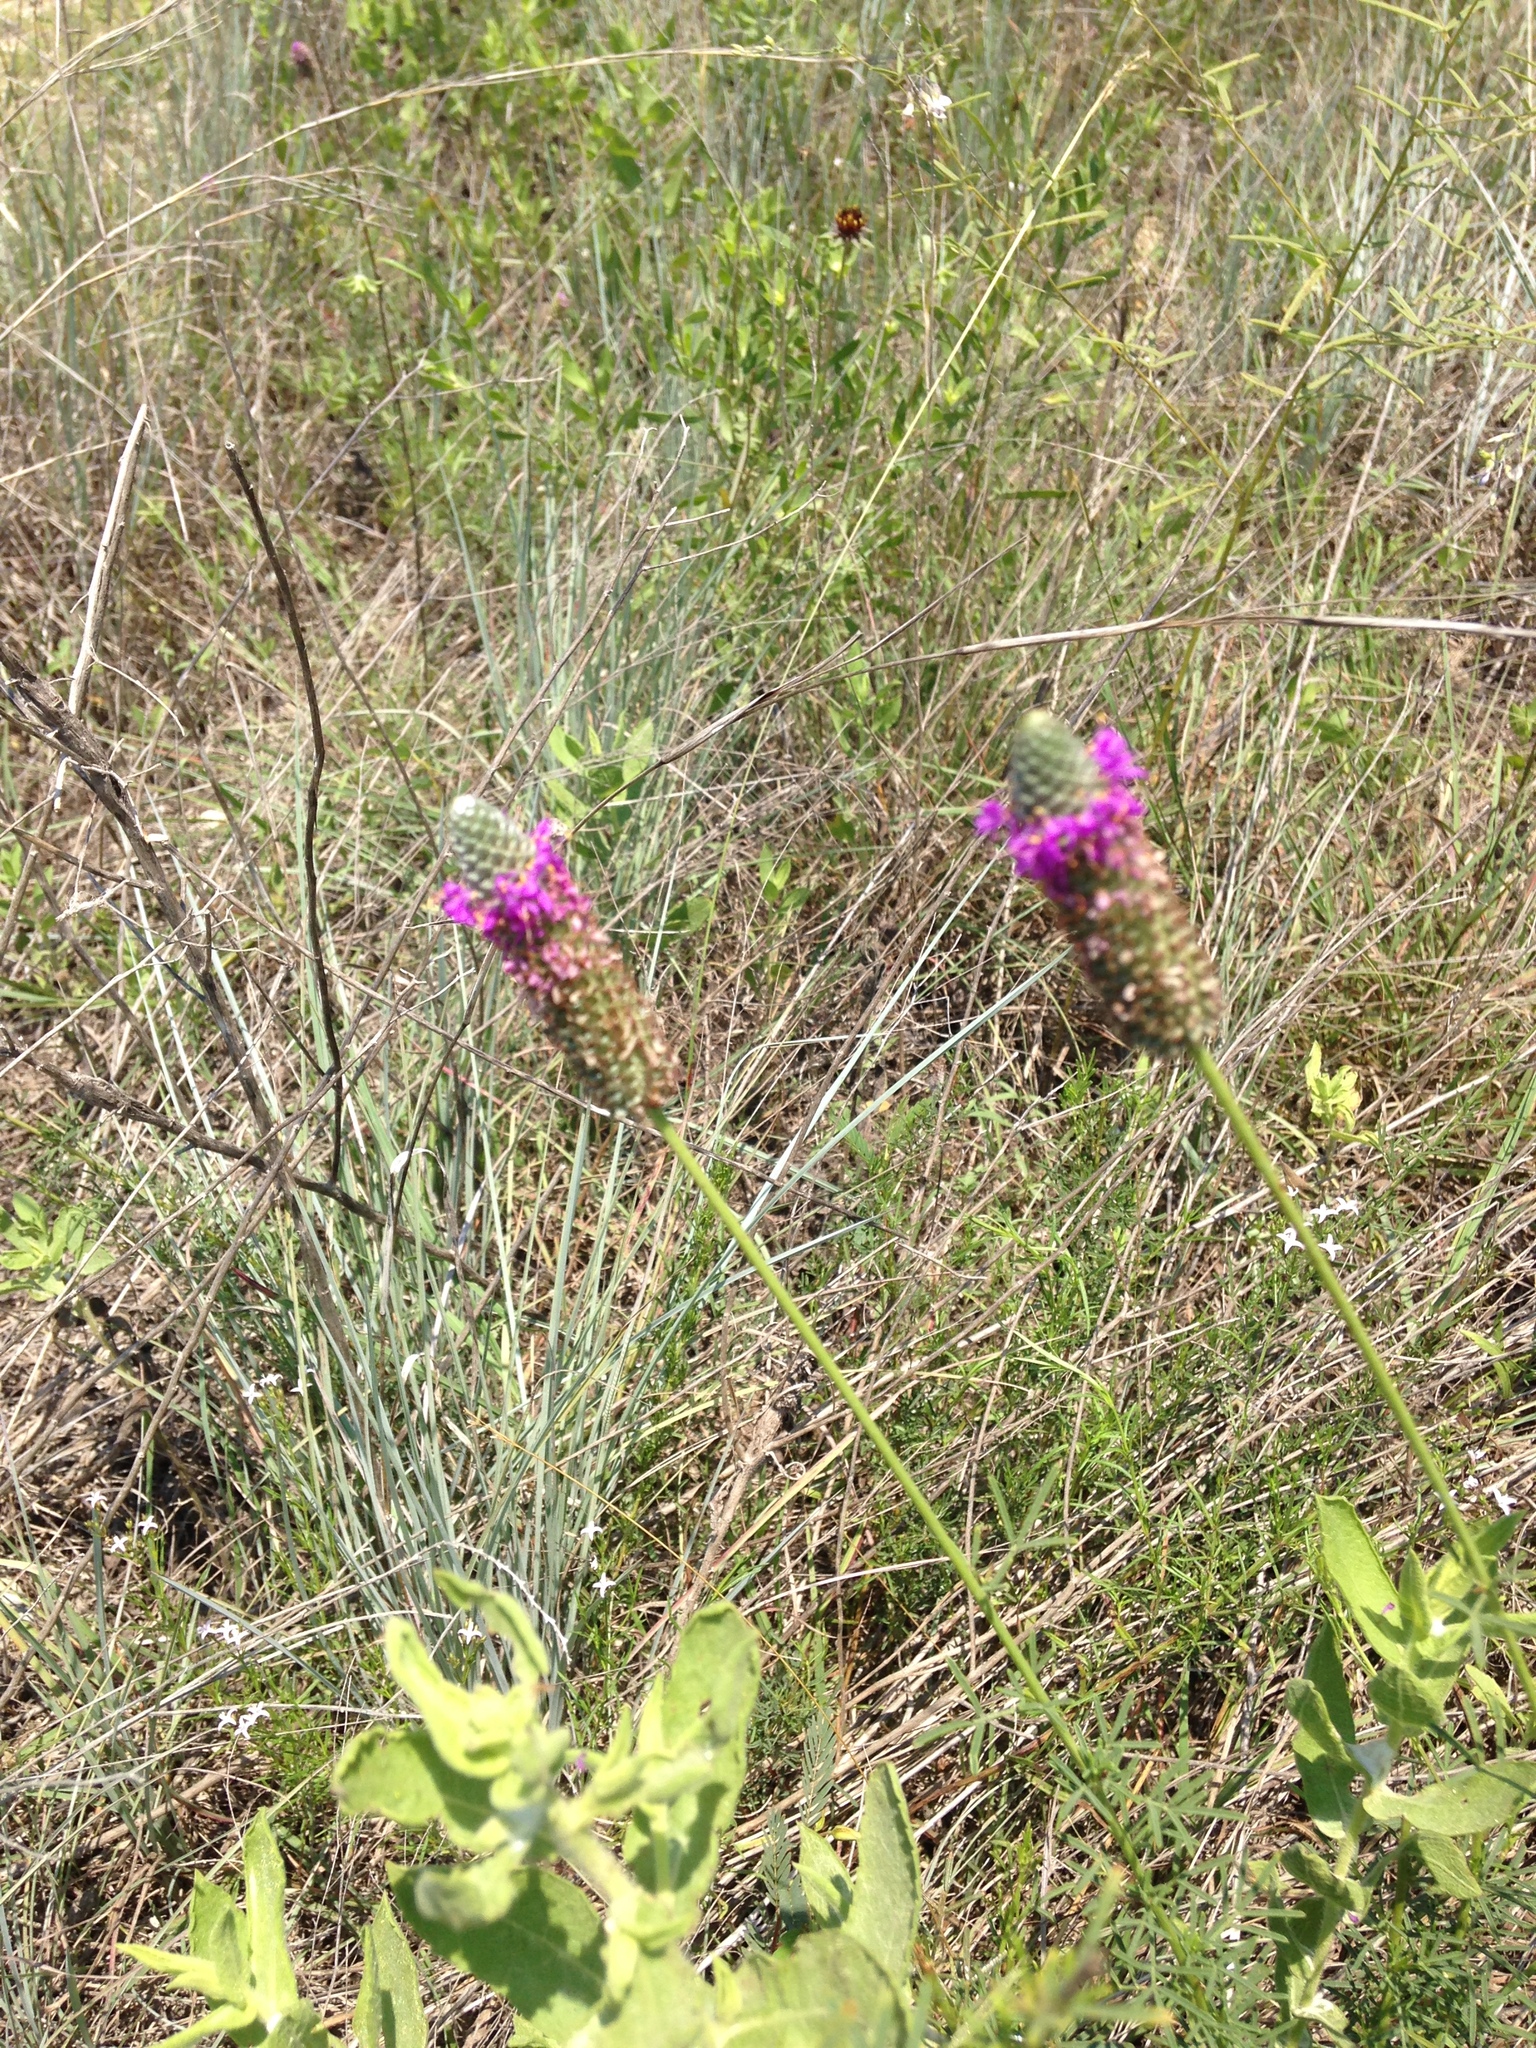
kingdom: Plantae
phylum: Tracheophyta
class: Magnoliopsida
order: Fabales
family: Fabaceae
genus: Dalea
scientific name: Dalea compacta
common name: Compact prairie-clover
